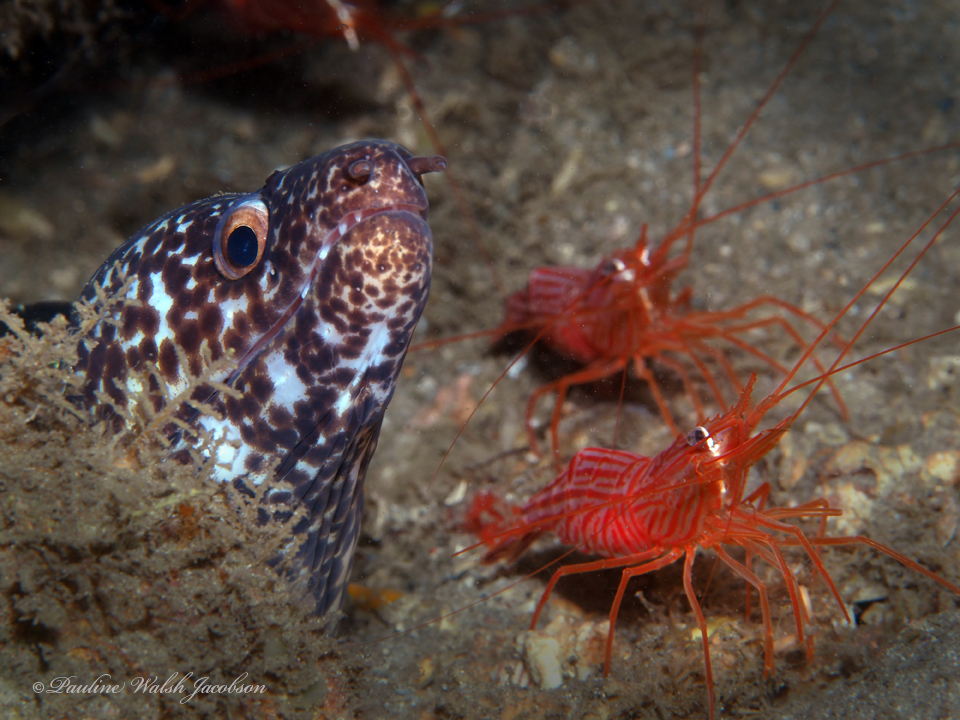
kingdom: Animalia
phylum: Chordata
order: Anguilliformes
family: Muraenidae
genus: Gymnothorax
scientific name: Gymnothorax moringa
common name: Spotted moray
